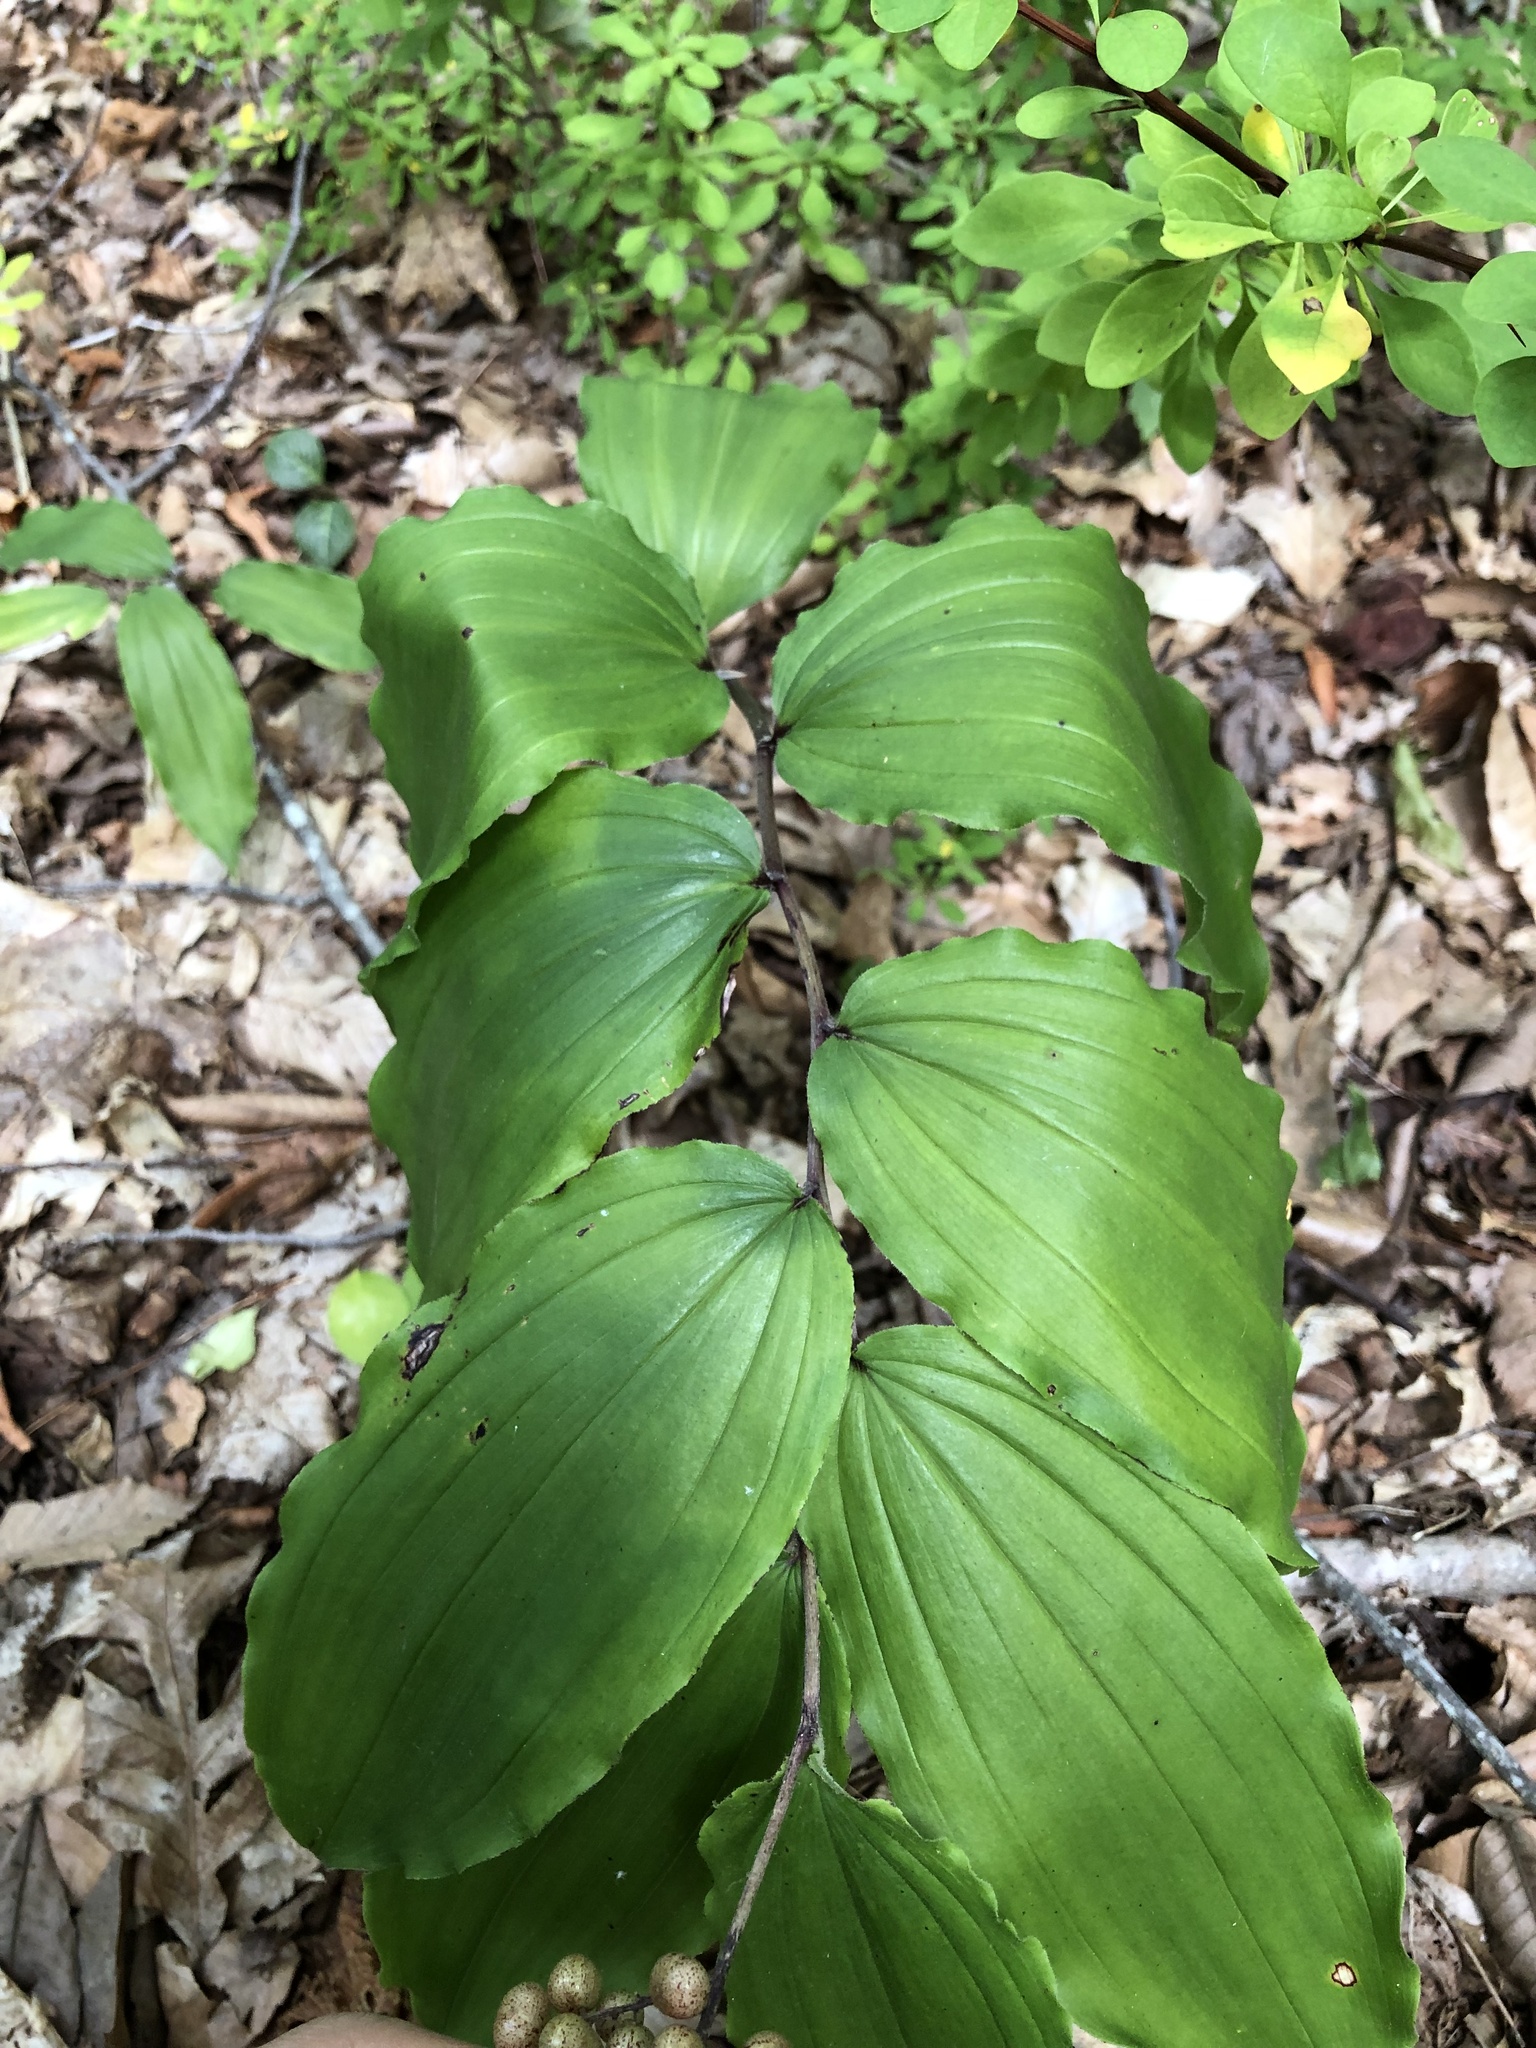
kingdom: Plantae
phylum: Tracheophyta
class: Liliopsida
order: Asparagales
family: Asparagaceae
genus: Maianthemum
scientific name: Maianthemum racemosum
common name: False spikenard
